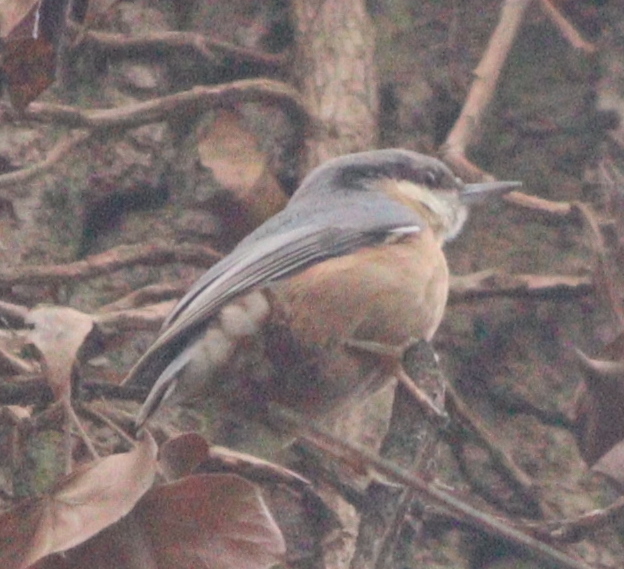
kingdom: Animalia
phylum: Chordata
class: Aves
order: Passeriformes
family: Sittidae
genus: Sitta
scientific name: Sitta europaea
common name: Eurasian nuthatch
